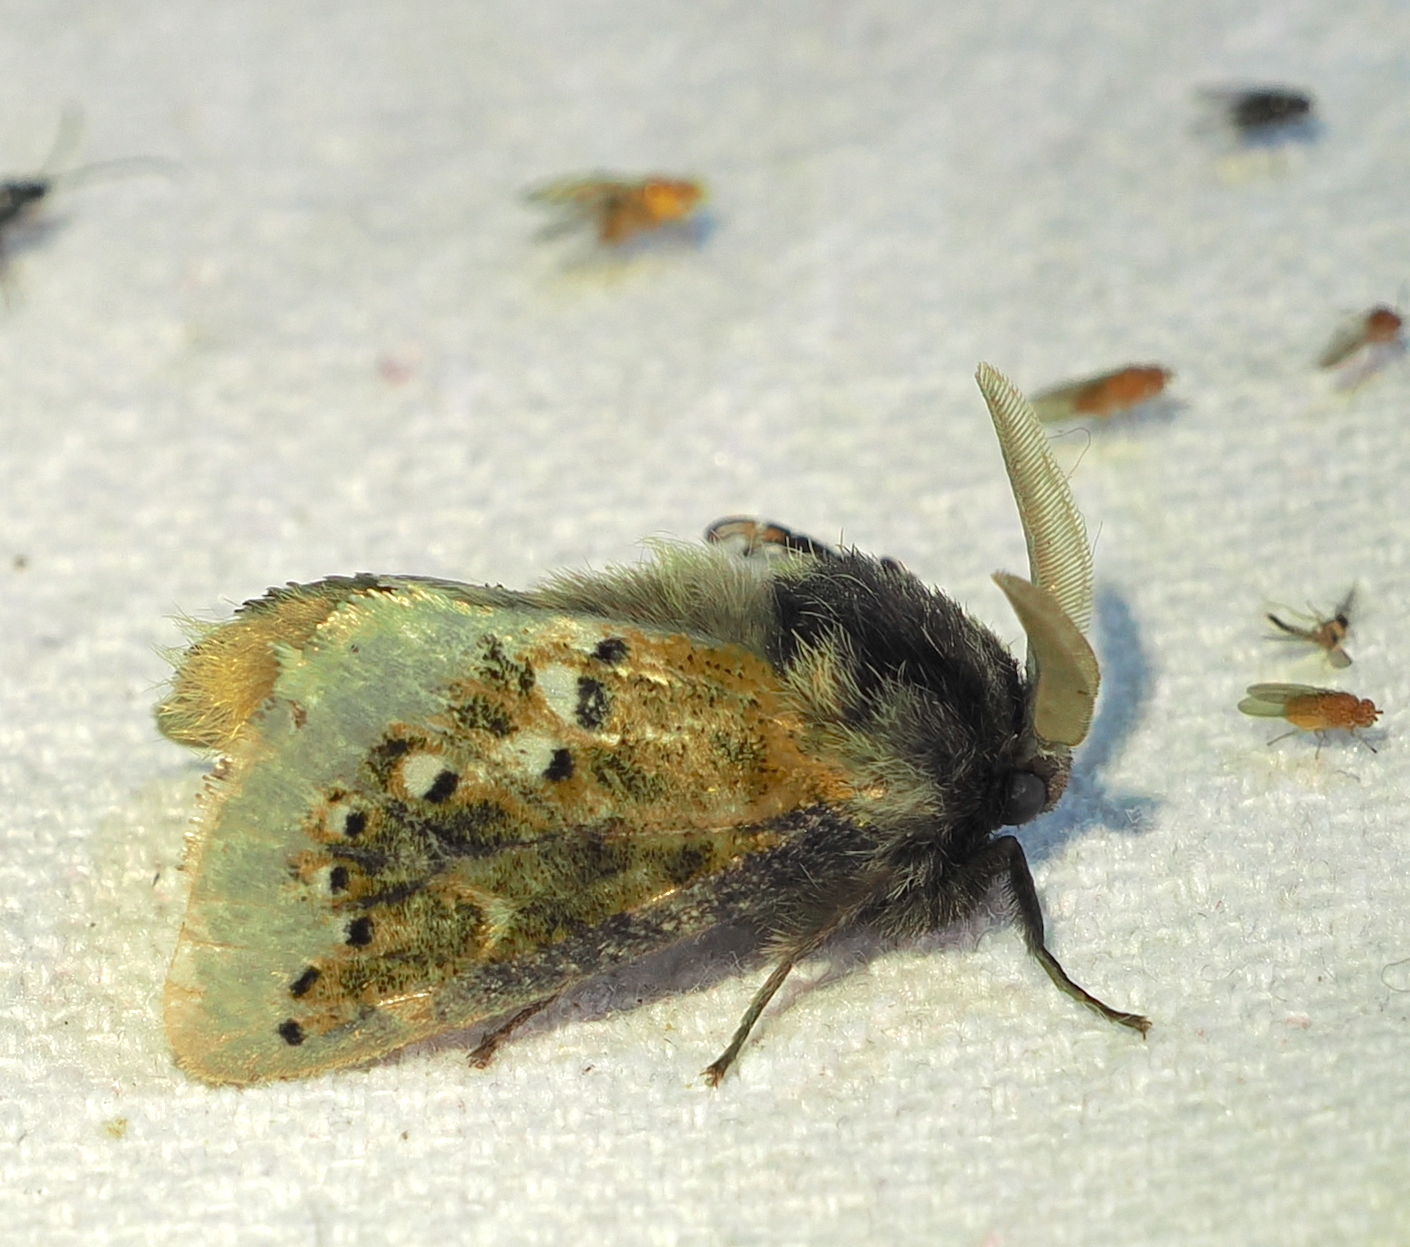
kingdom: Animalia
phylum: Arthropoda
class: Insecta
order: Lepidoptera
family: Megalopygidae
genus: Macara
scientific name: Macara alydda
